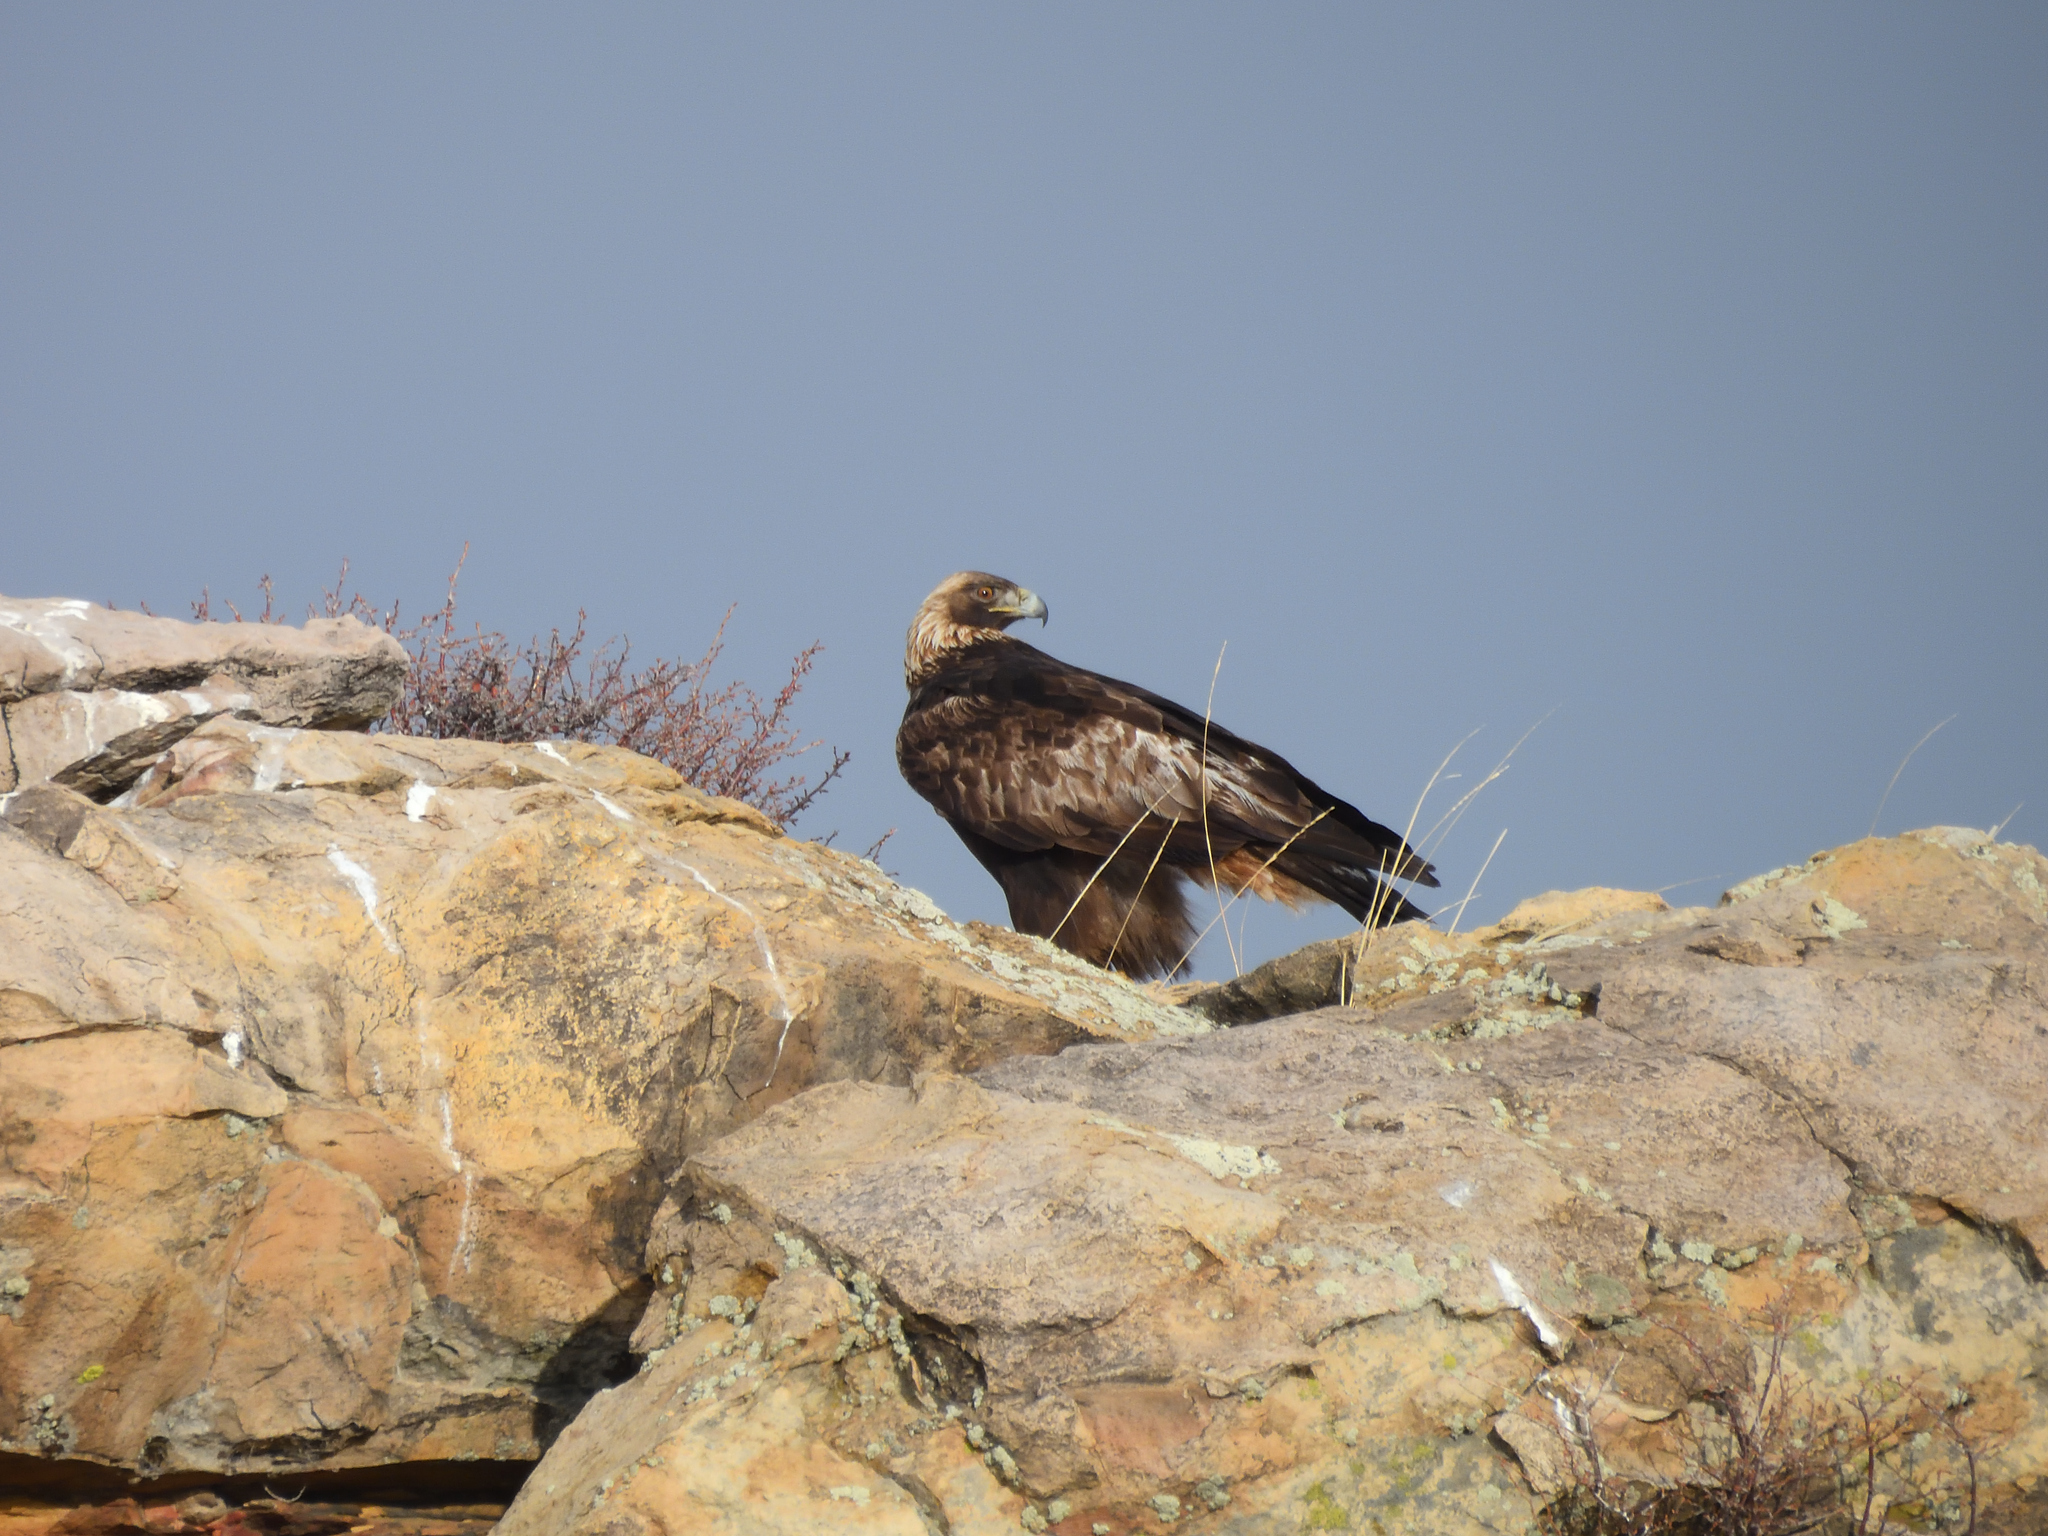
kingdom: Animalia
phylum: Chordata
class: Aves
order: Accipitriformes
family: Accipitridae
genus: Aquila
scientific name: Aquila chrysaetos
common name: Golden eagle
